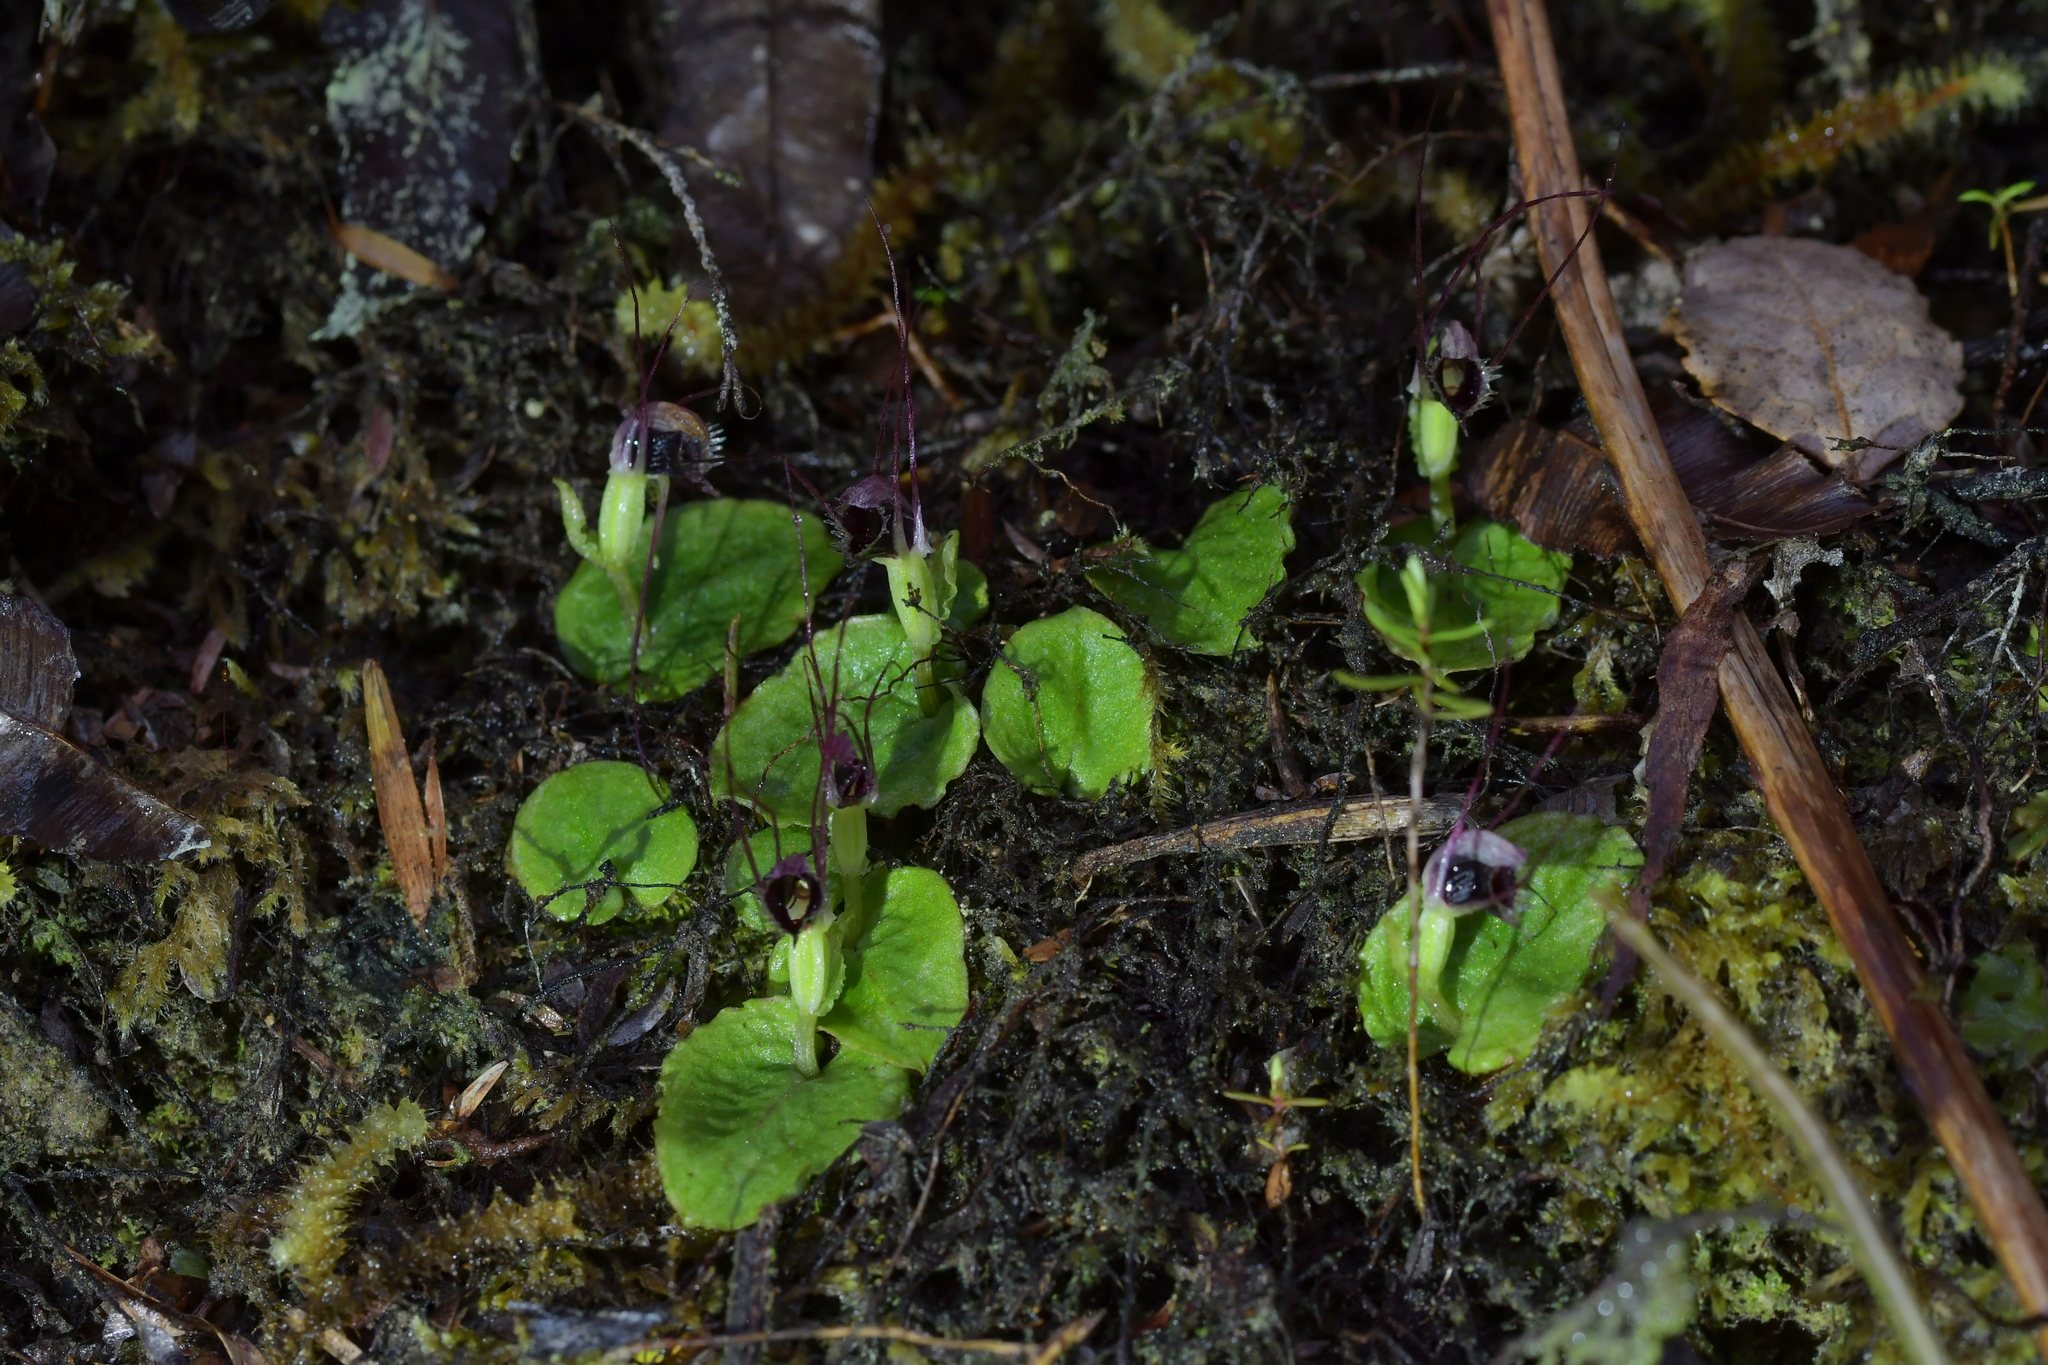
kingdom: Plantae
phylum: Tracheophyta
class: Liliopsida
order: Asparagales
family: Orchidaceae
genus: Corybas
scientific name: Corybas oblongus
